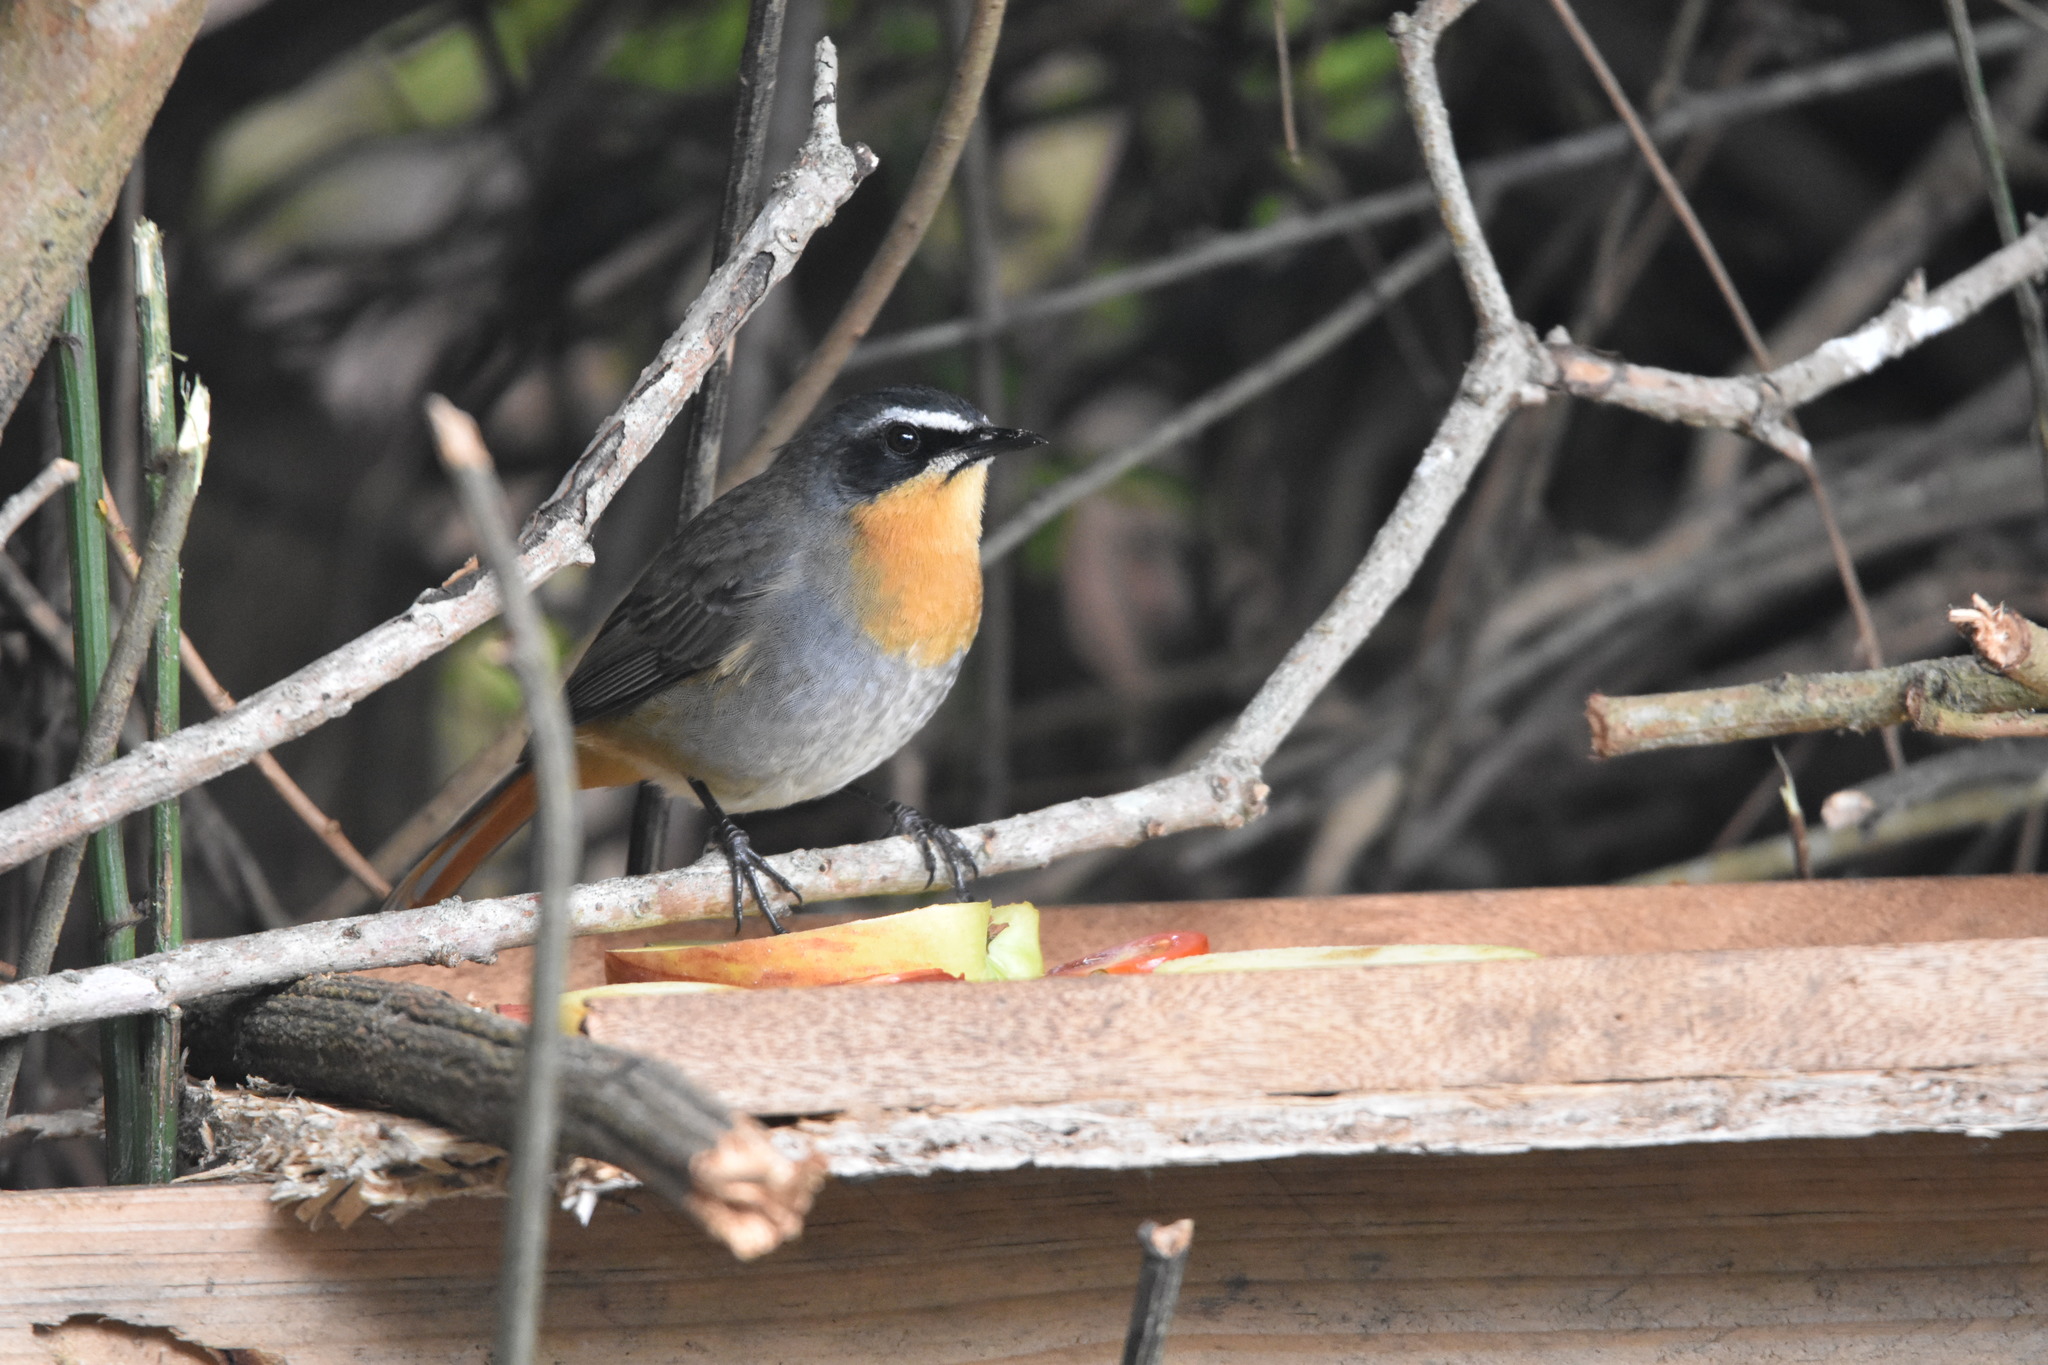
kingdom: Animalia
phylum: Chordata
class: Aves
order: Passeriformes
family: Muscicapidae
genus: Cossypha
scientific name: Cossypha caffra
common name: Cape robin-chat
